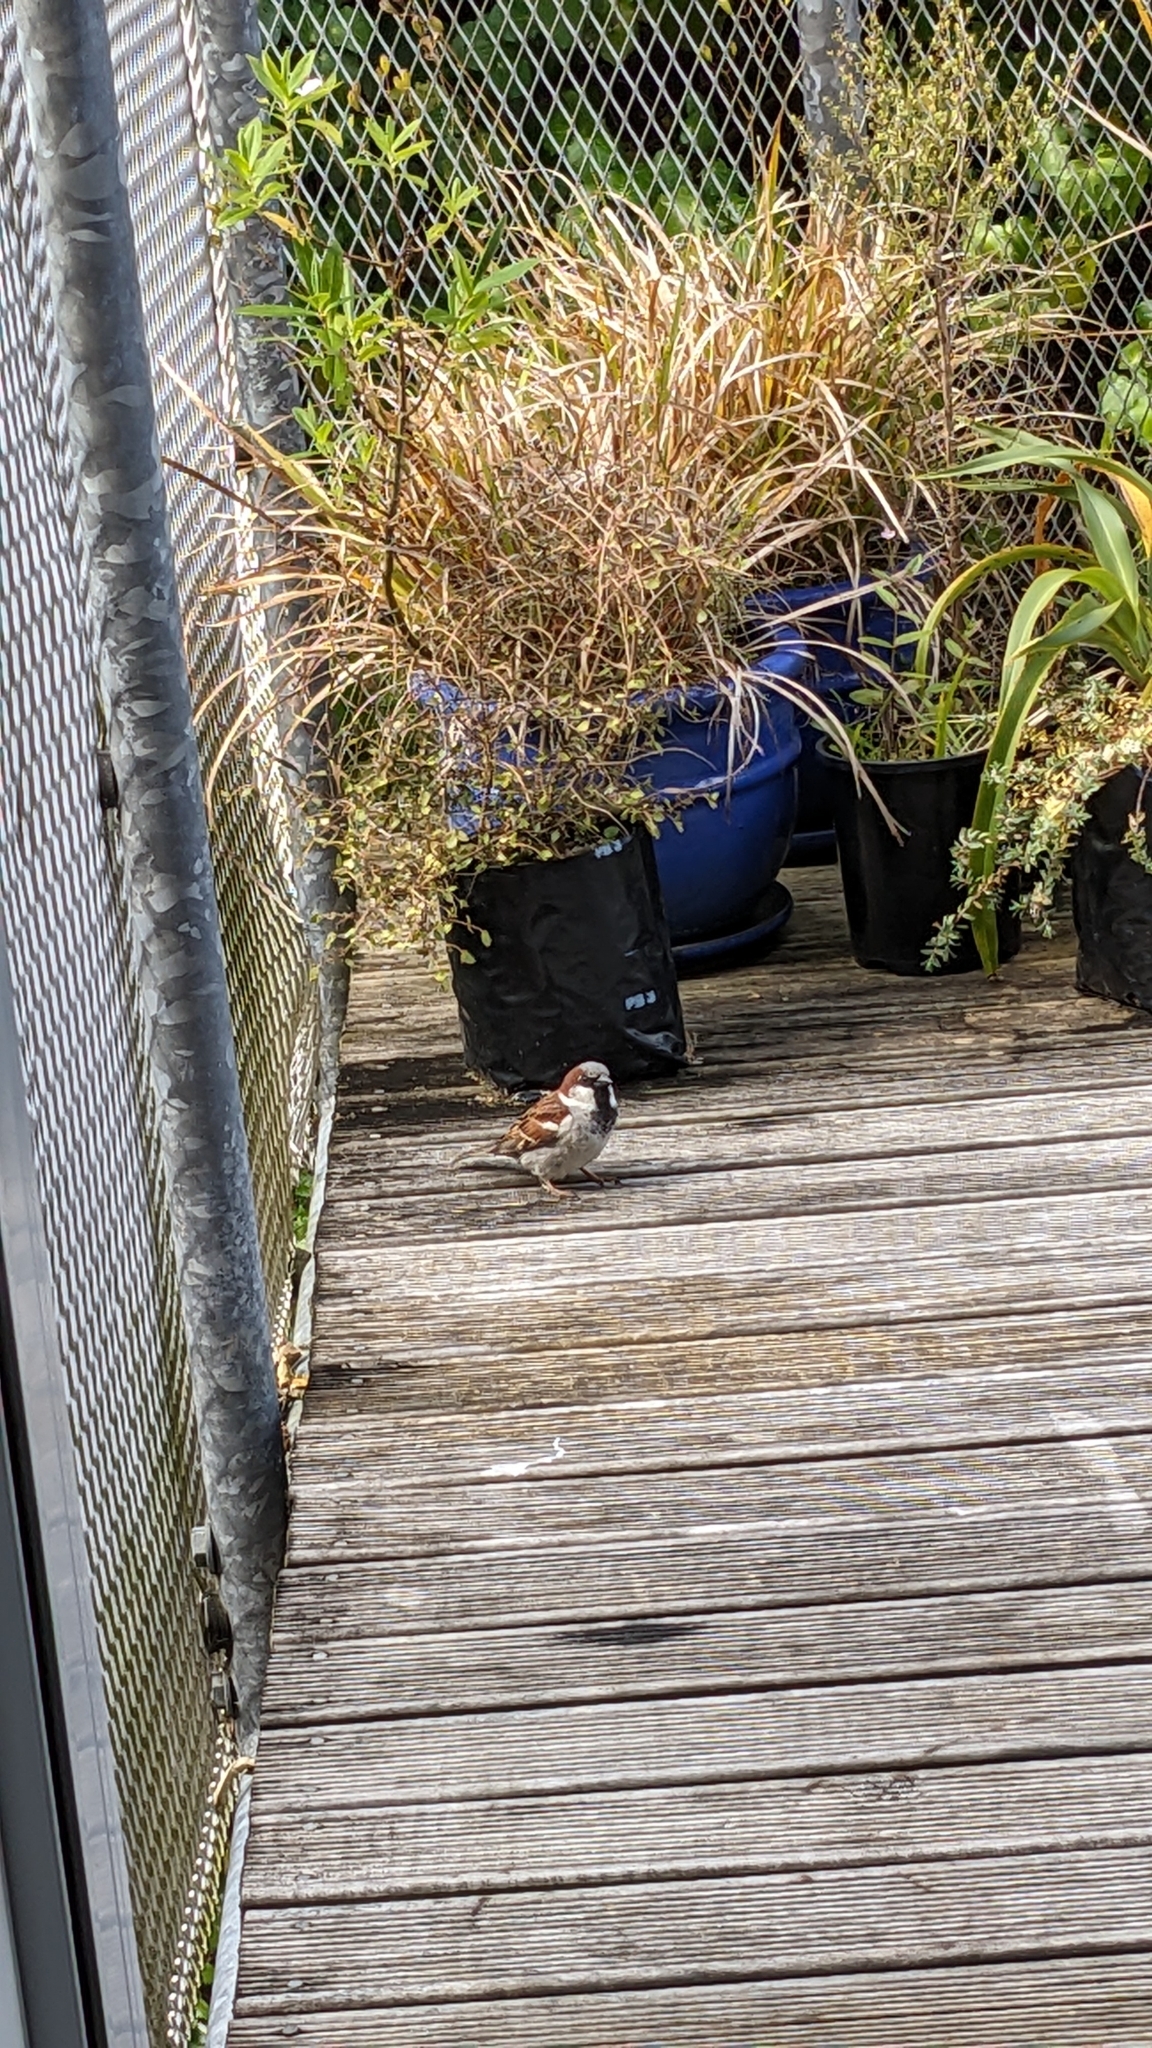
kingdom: Animalia
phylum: Chordata
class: Aves
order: Passeriformes
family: Passeridae
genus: Passer
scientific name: Passer domesticus
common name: House sparrow
